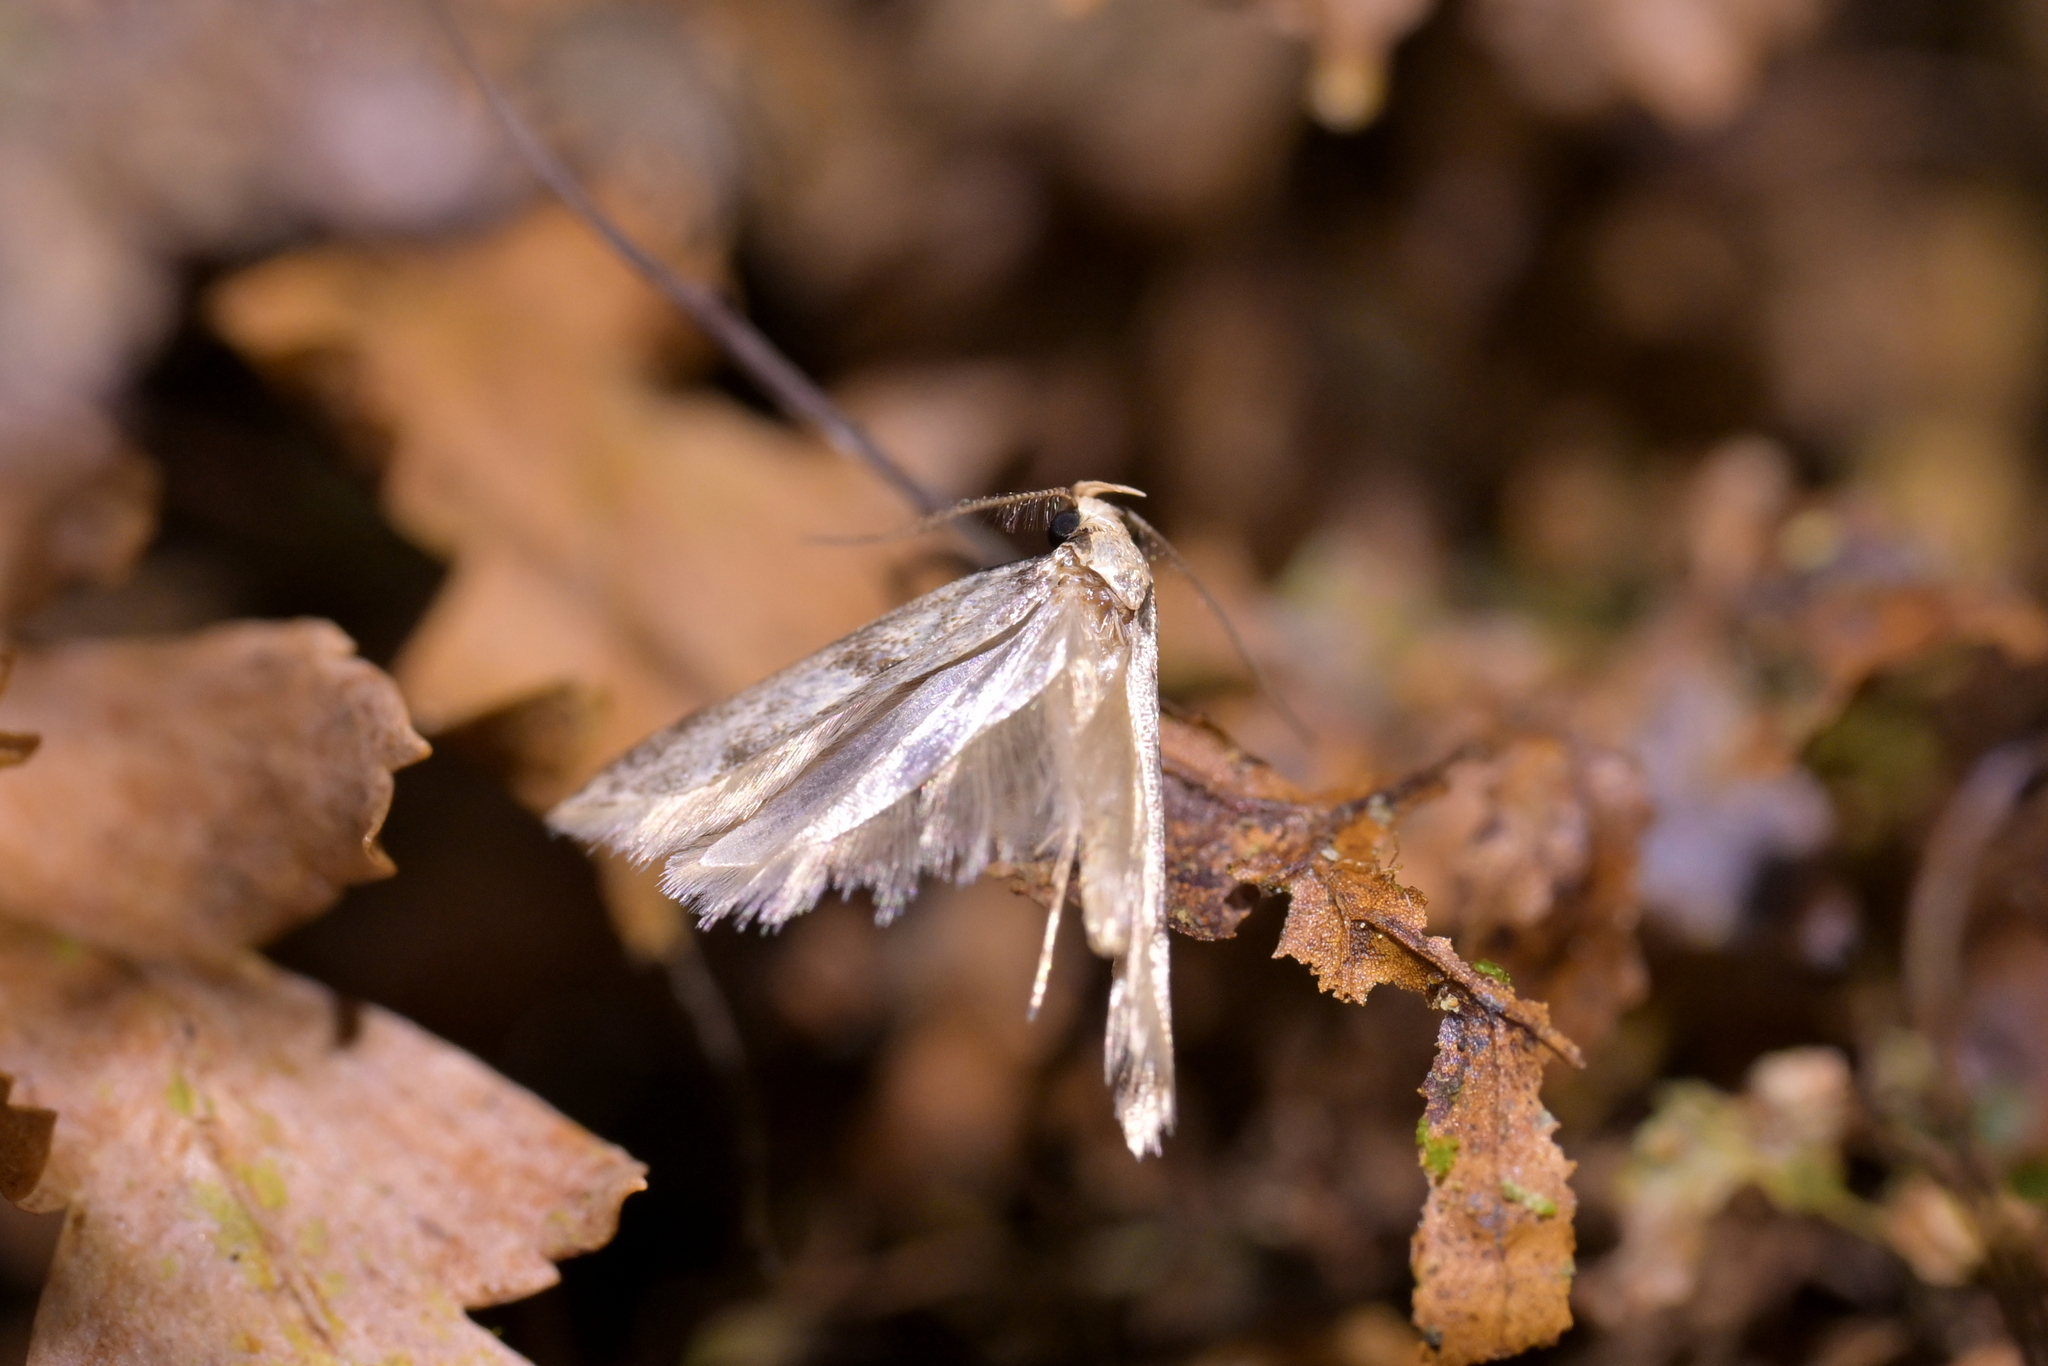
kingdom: Animalia
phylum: Arthropoda
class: Insecta
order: Lepidoptera
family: Gelechiidae
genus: Thiotricha
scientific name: Thiotricha tetraphala
